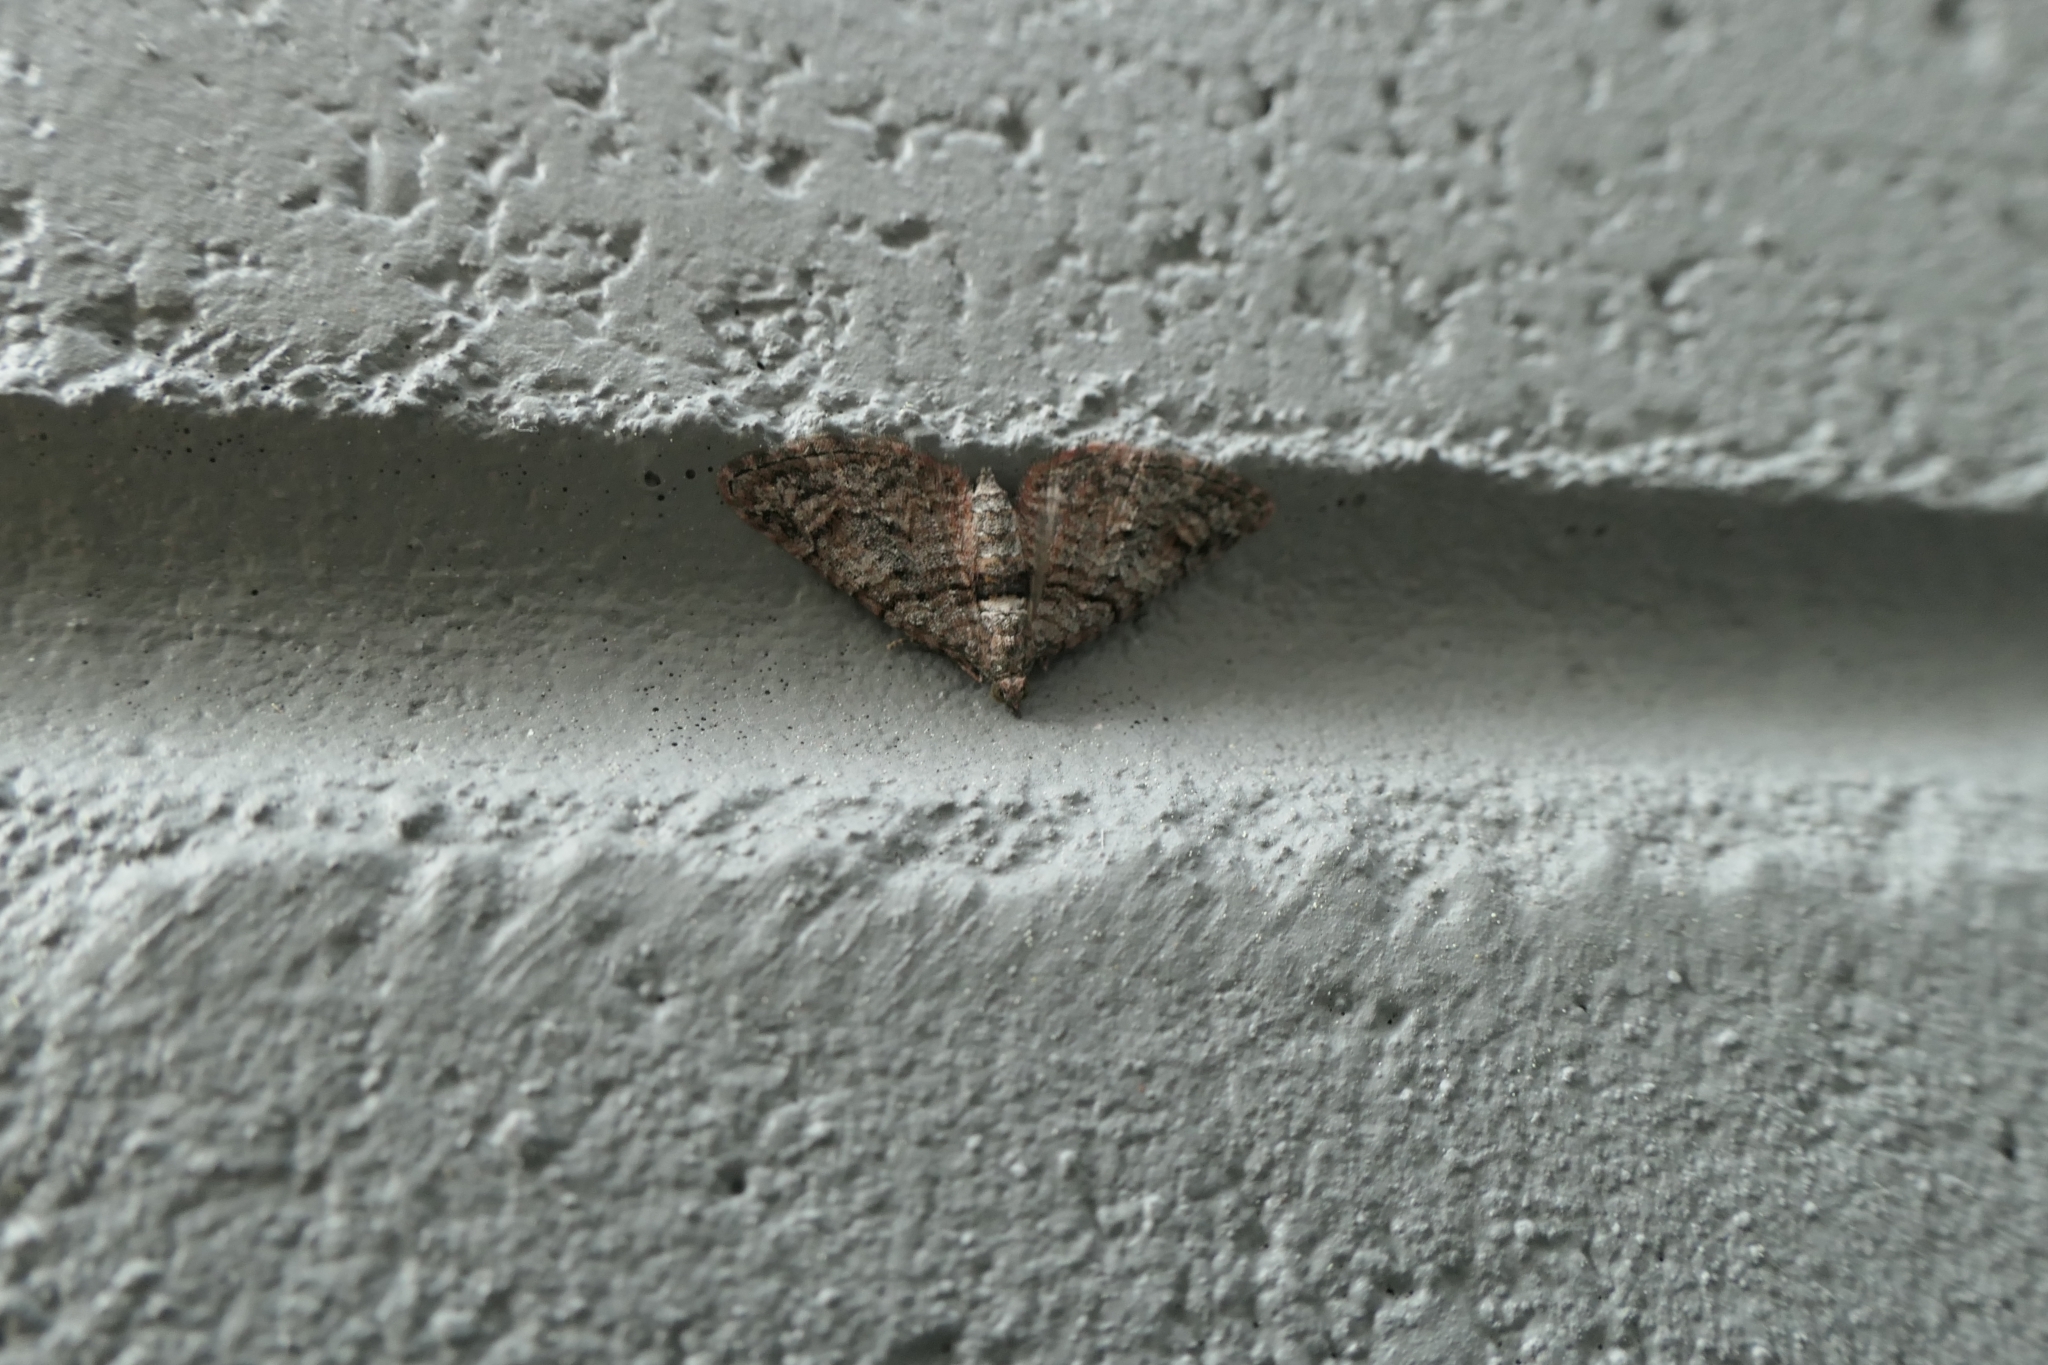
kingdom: Animalia
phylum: Arthropoda
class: Insecta
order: Lepidoptera
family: Geometridae
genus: Phrissogonus
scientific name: Phrissogonus laticostata
